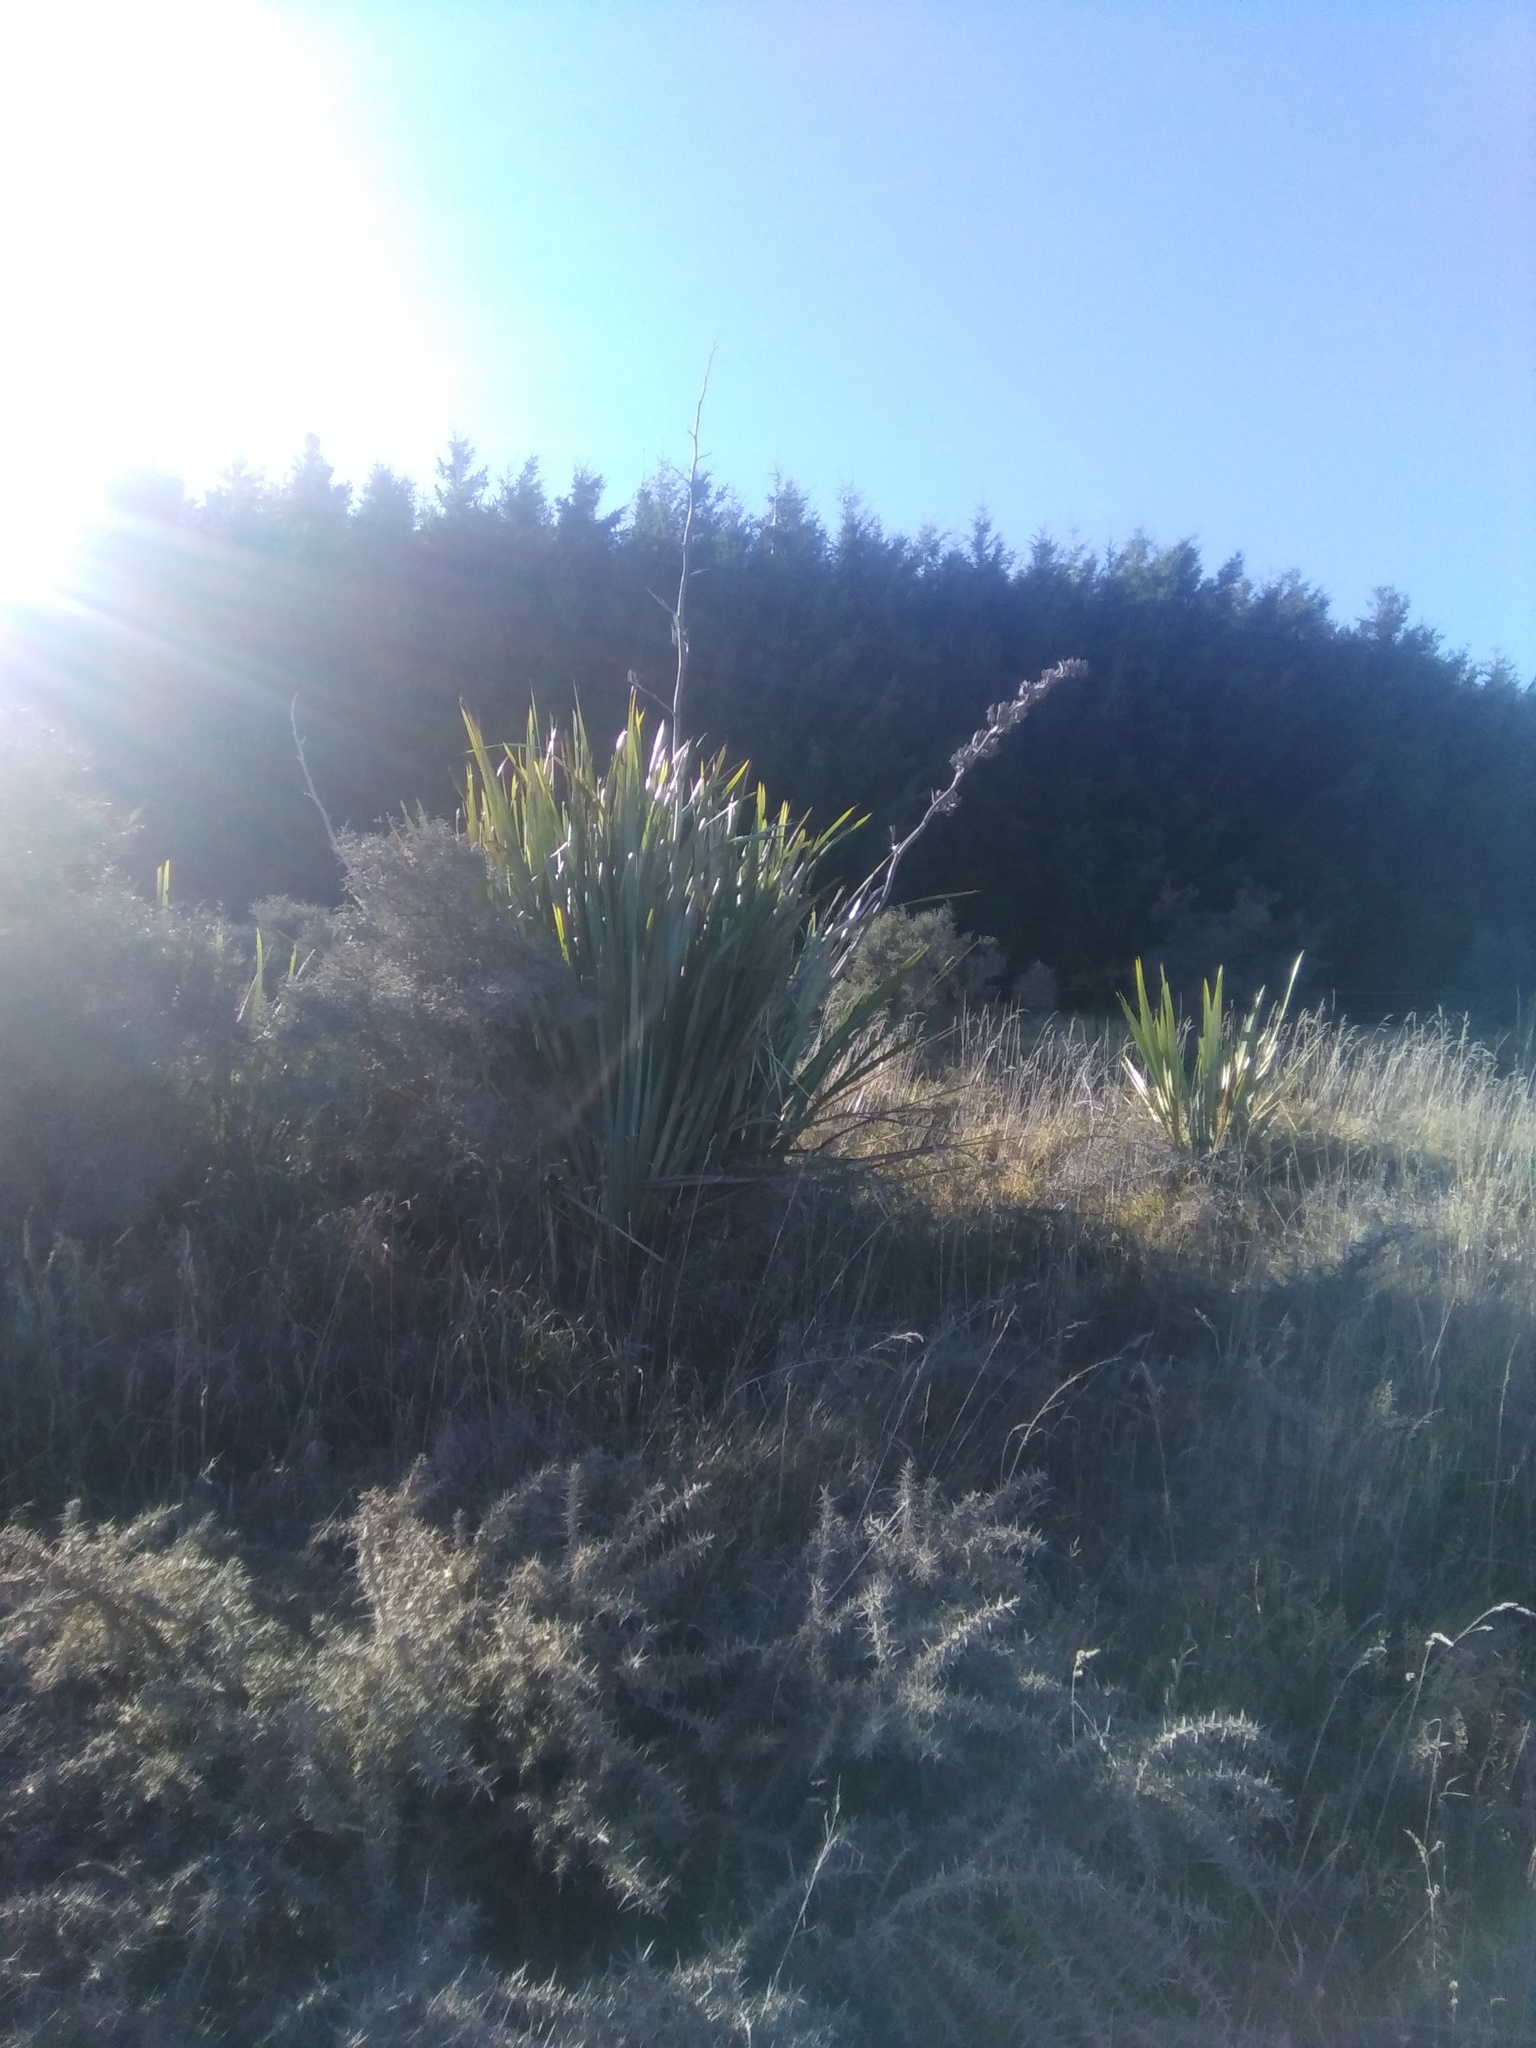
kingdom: Plantae
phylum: Tracheophyta
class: Liliopsida
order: Asparagales
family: Asphodelaceae
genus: Phormium
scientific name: Phormium tenax
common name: New zealand flax
